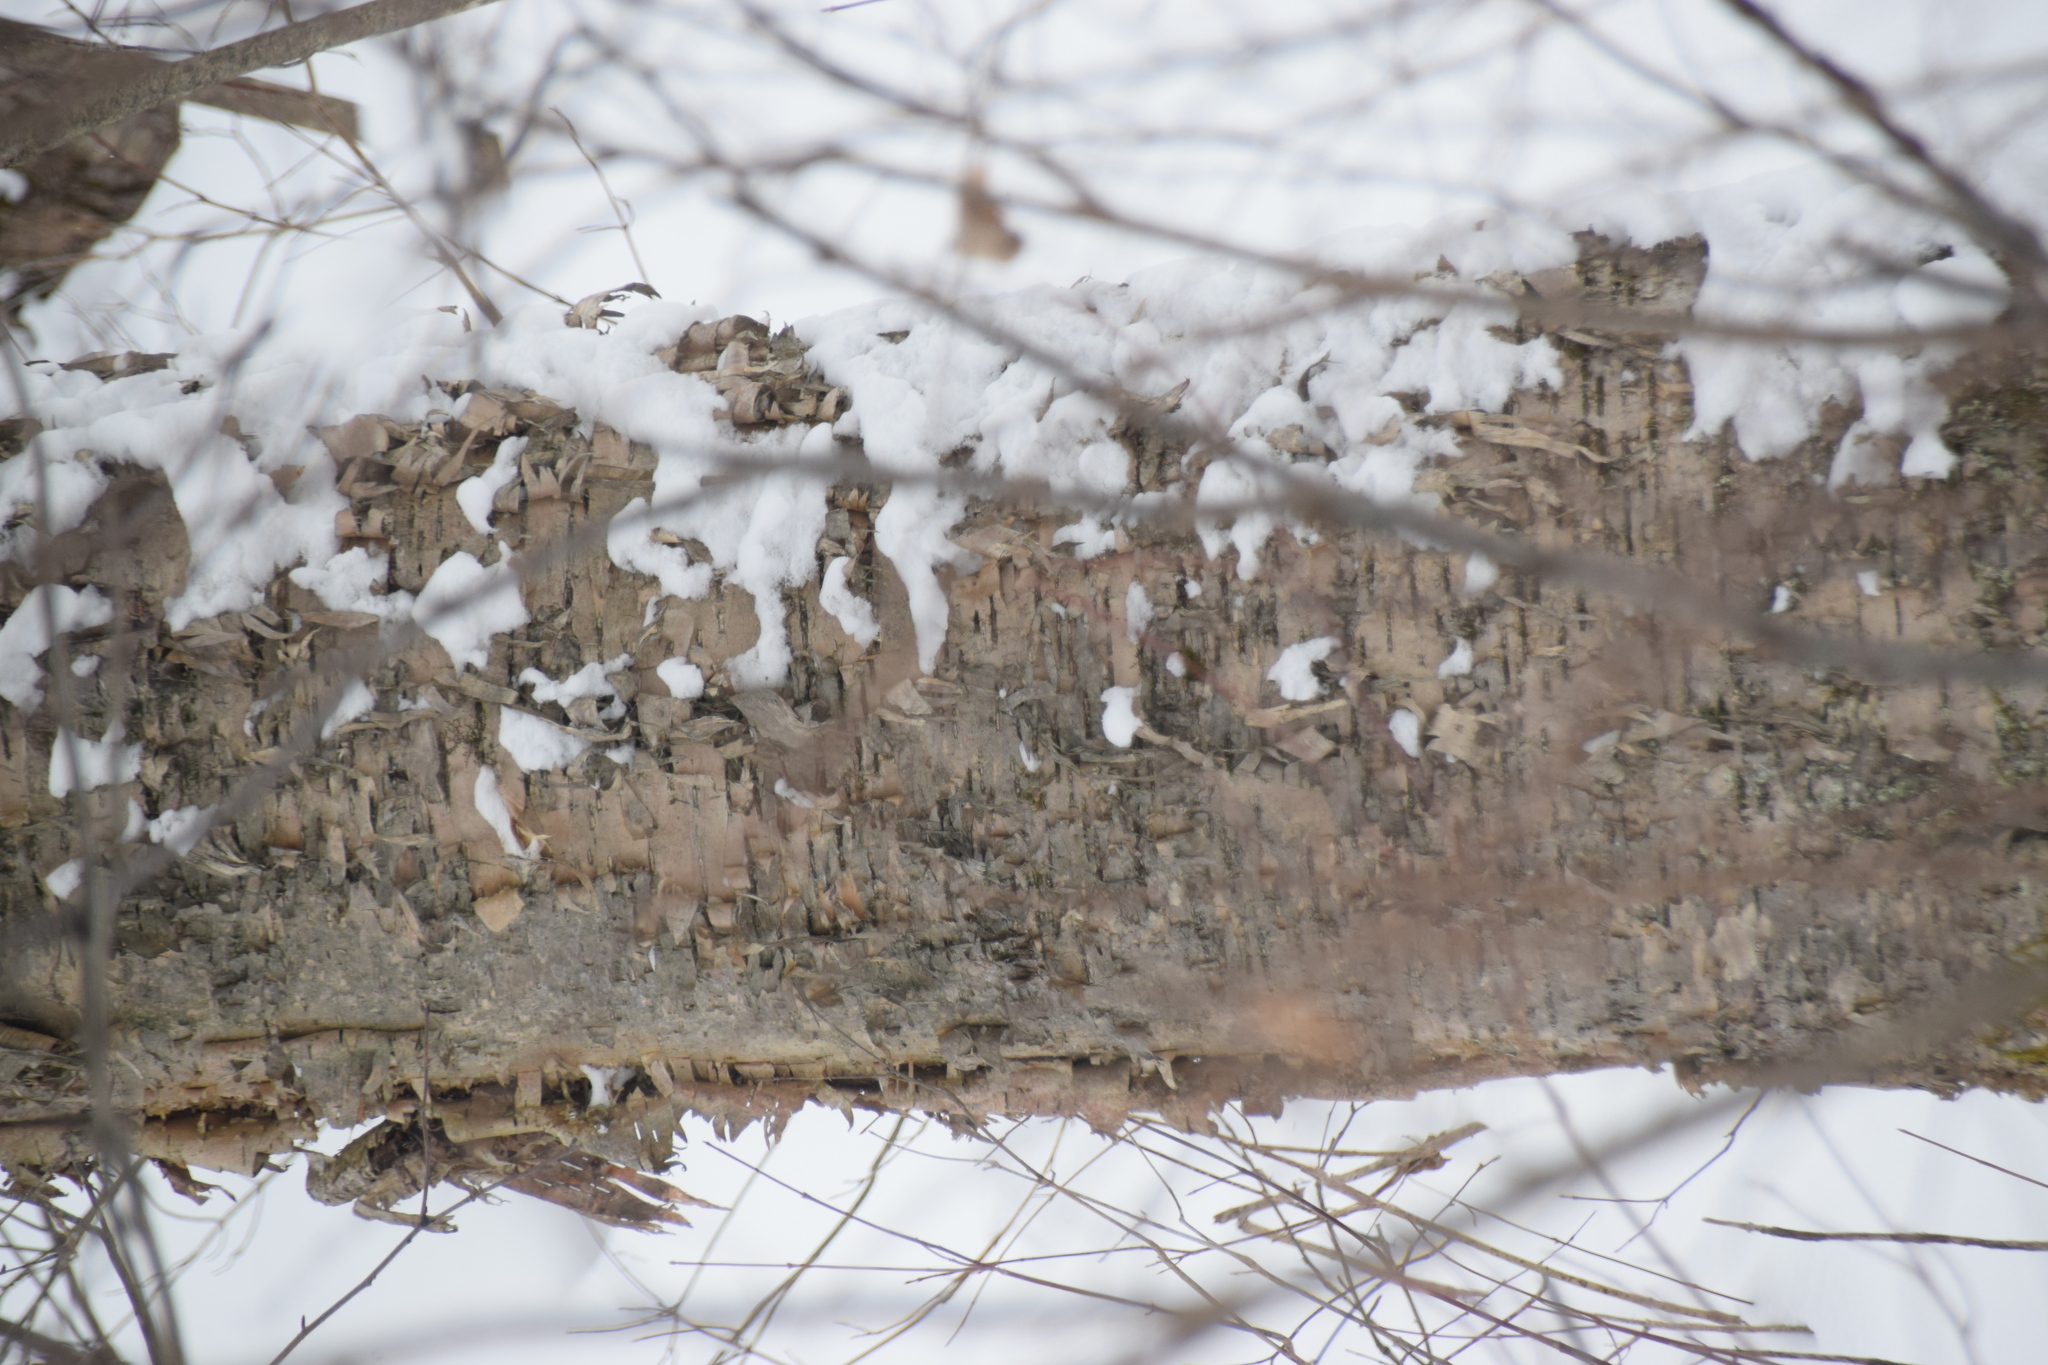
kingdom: Plantae
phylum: Tracheophyta
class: Magnoliopsida
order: Fagales
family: Betulaceae
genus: Betula
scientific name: Betula alleghaniensis
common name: Yellow birch
